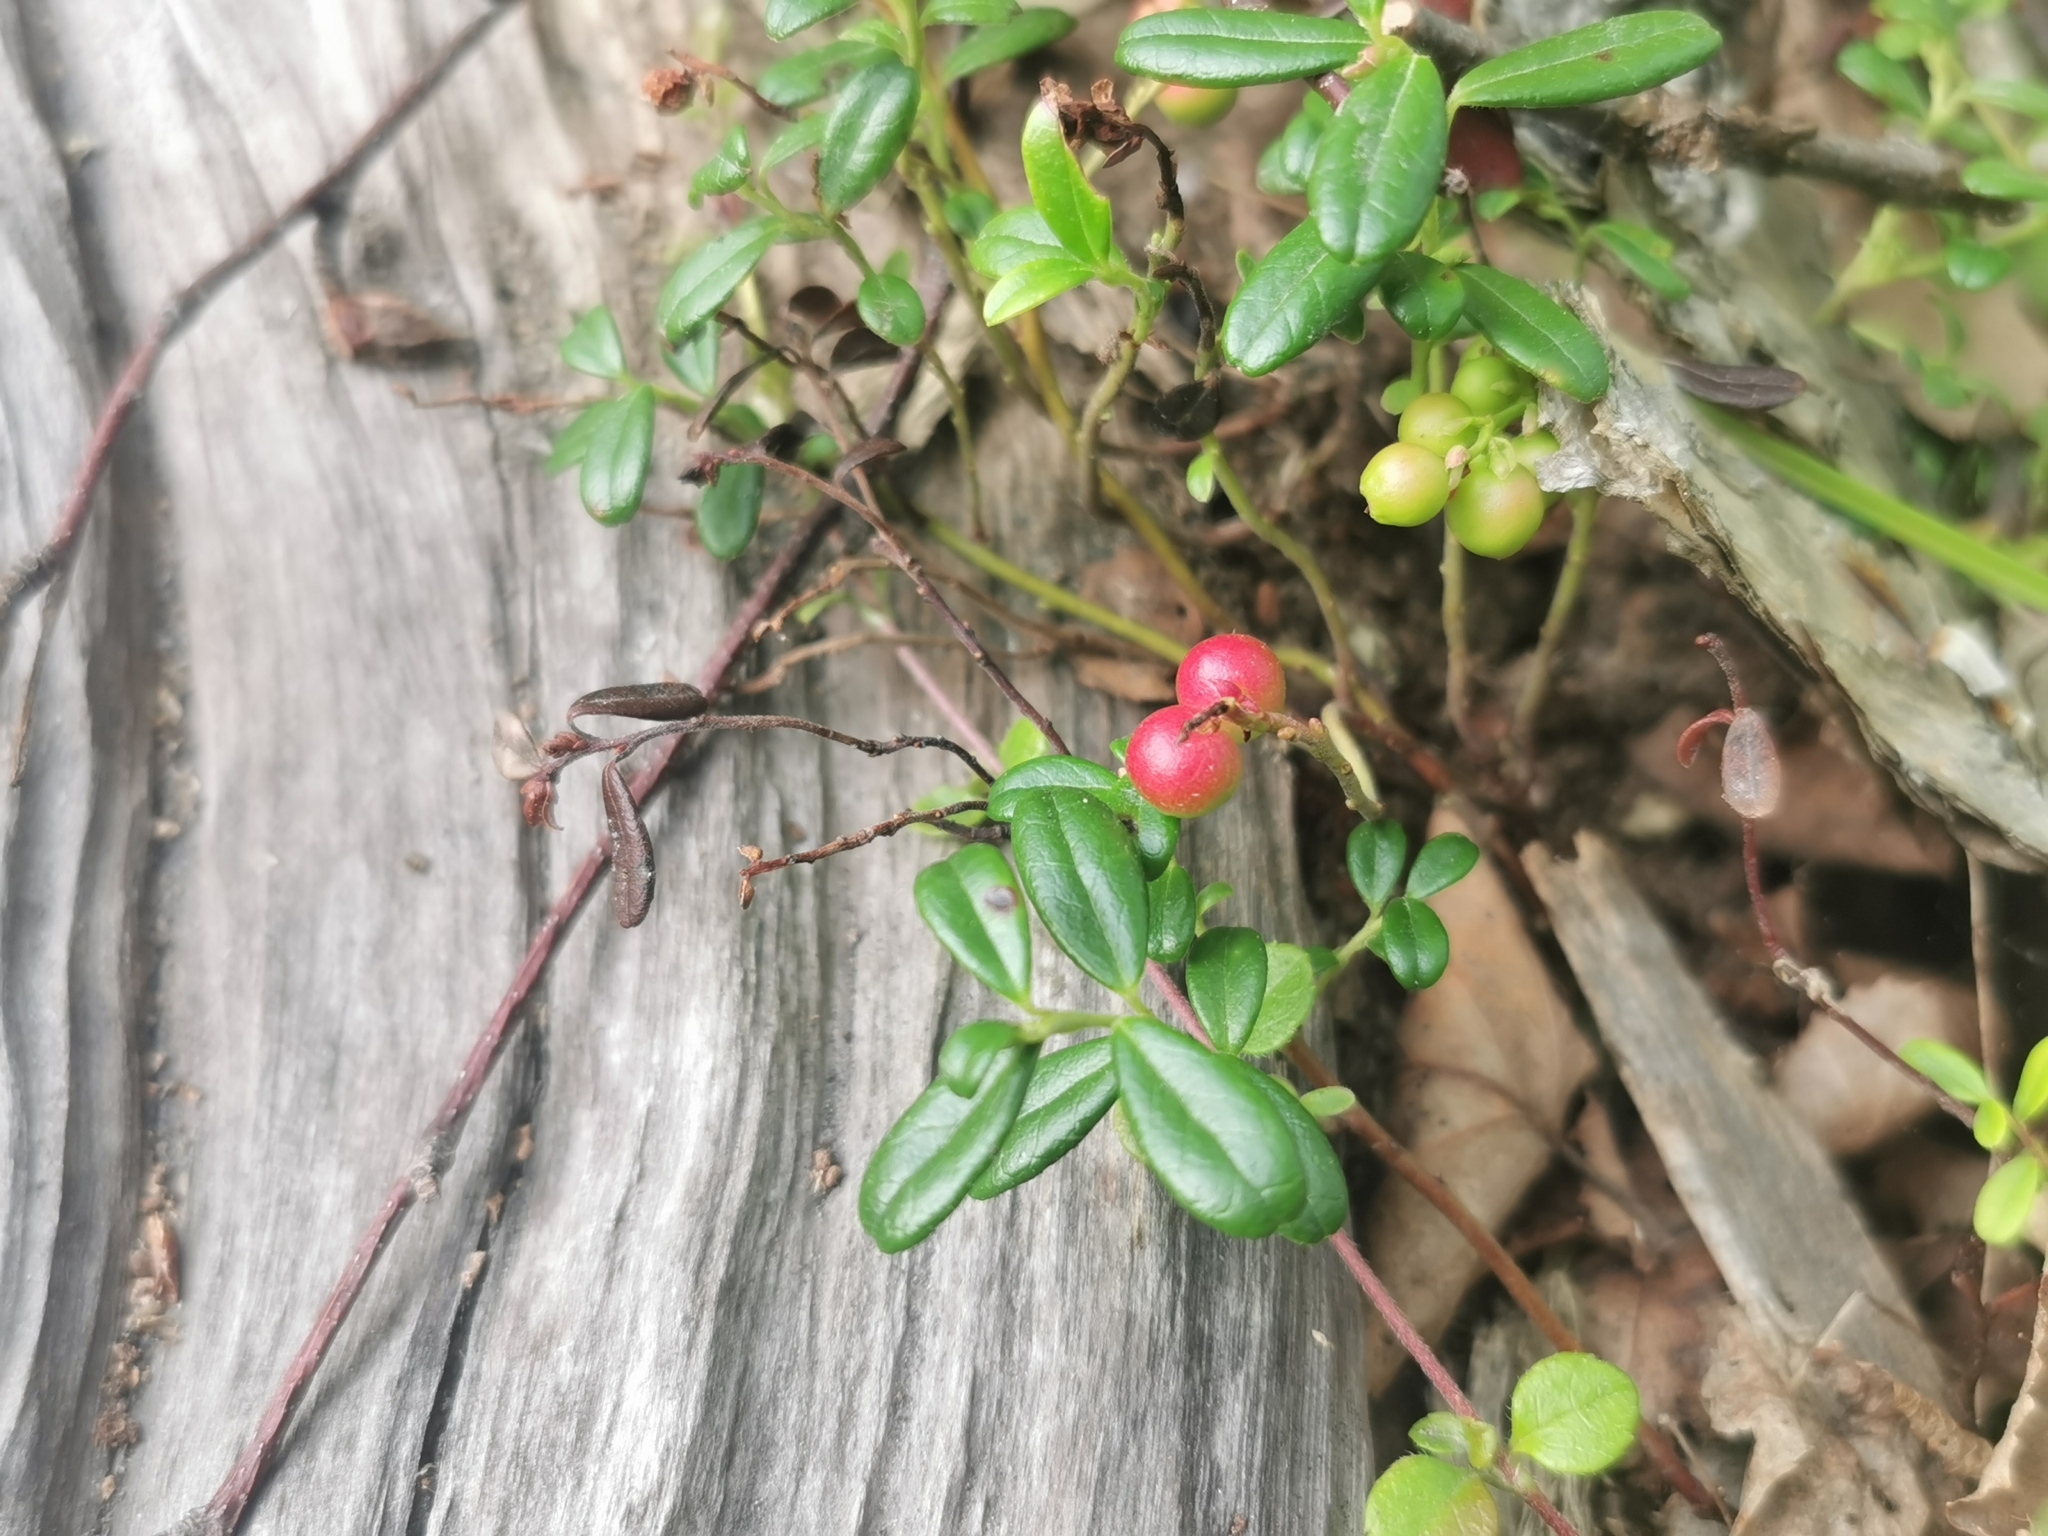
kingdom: Plantae
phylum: Tracheophyta
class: Magnoliopsida
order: Ericales
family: Ericaceae
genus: Vaccinium
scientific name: Vaccinium vitis-idaea
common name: Cowberry
